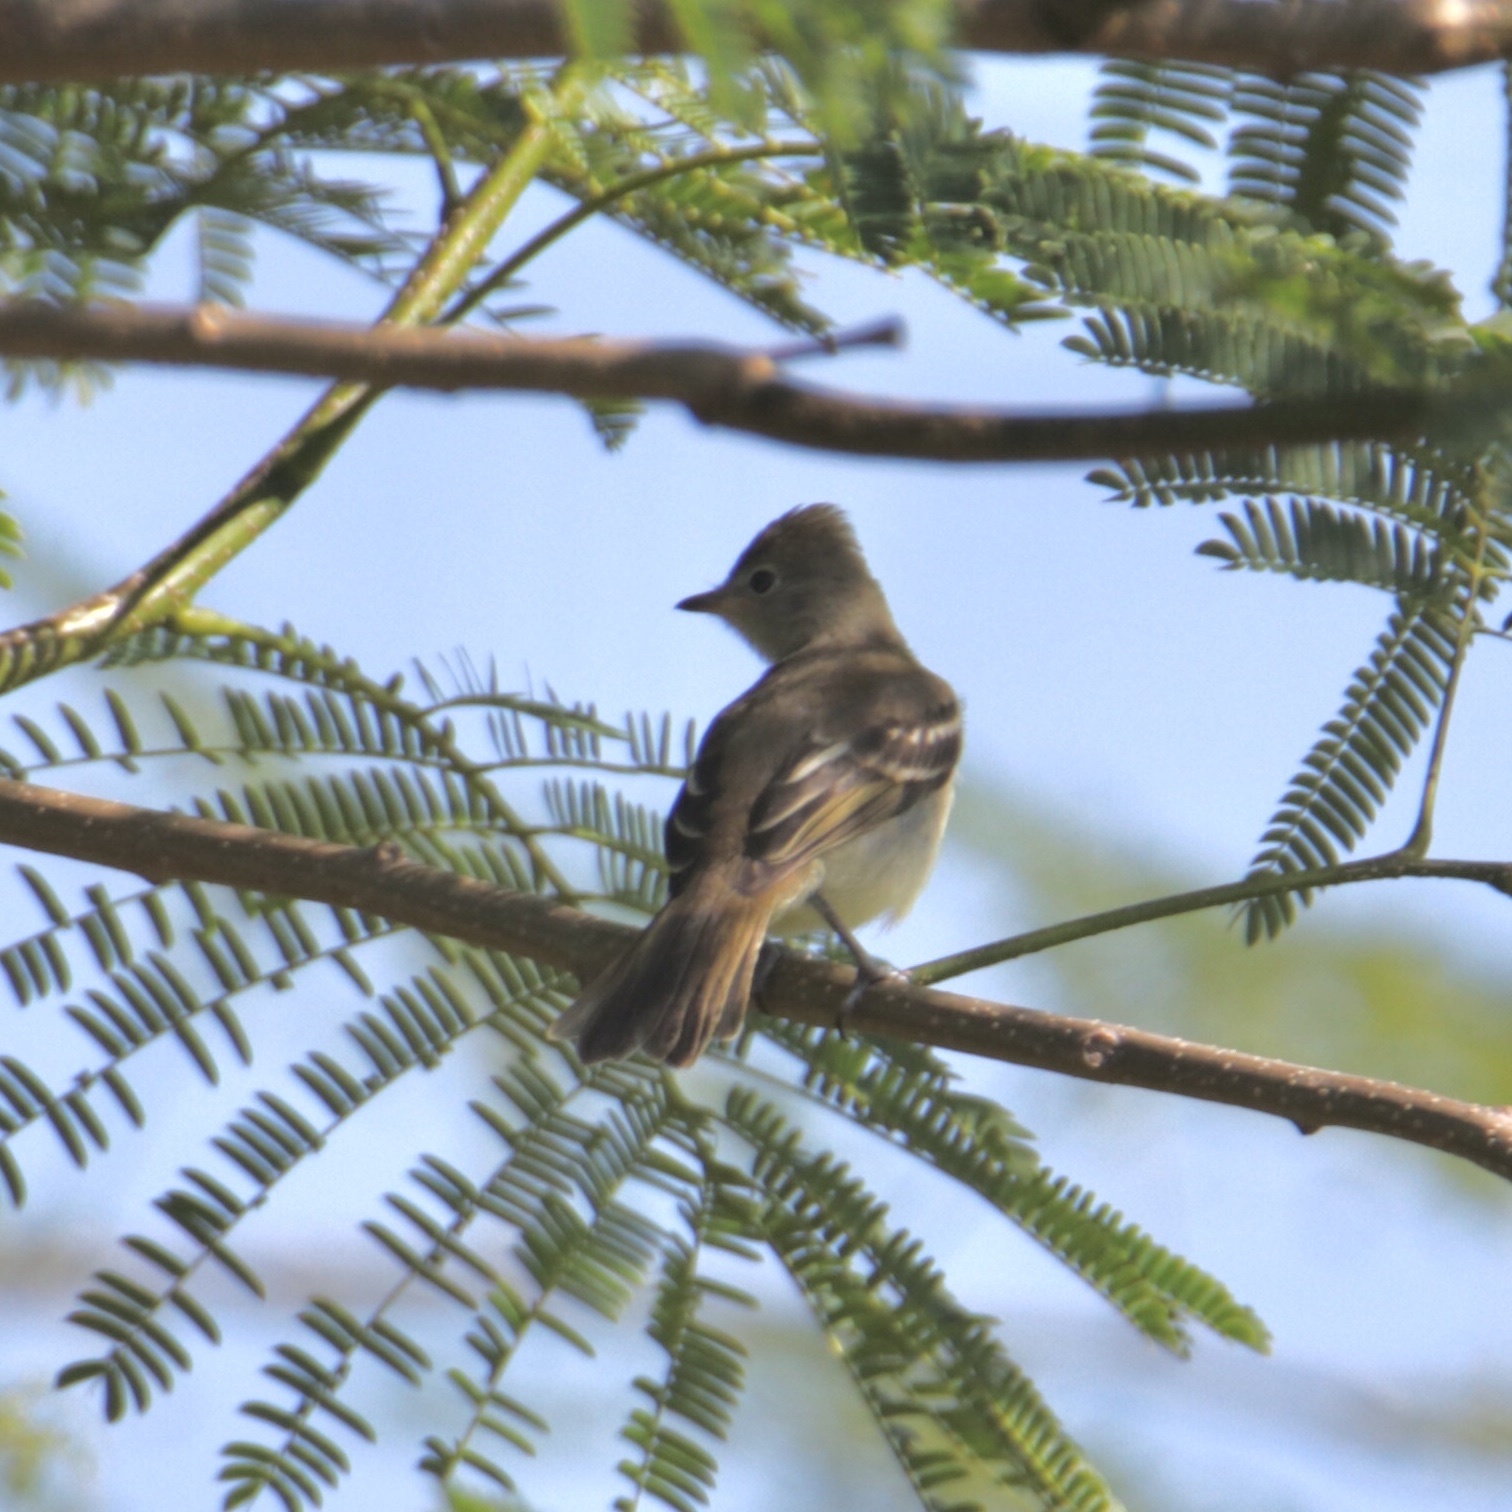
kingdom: Animalia
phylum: Chordata
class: Aves
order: Passeriformes
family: Tyrannidae
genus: Elaenia
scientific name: Elaenia flavogaster
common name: Yellow-bellied elaenia
